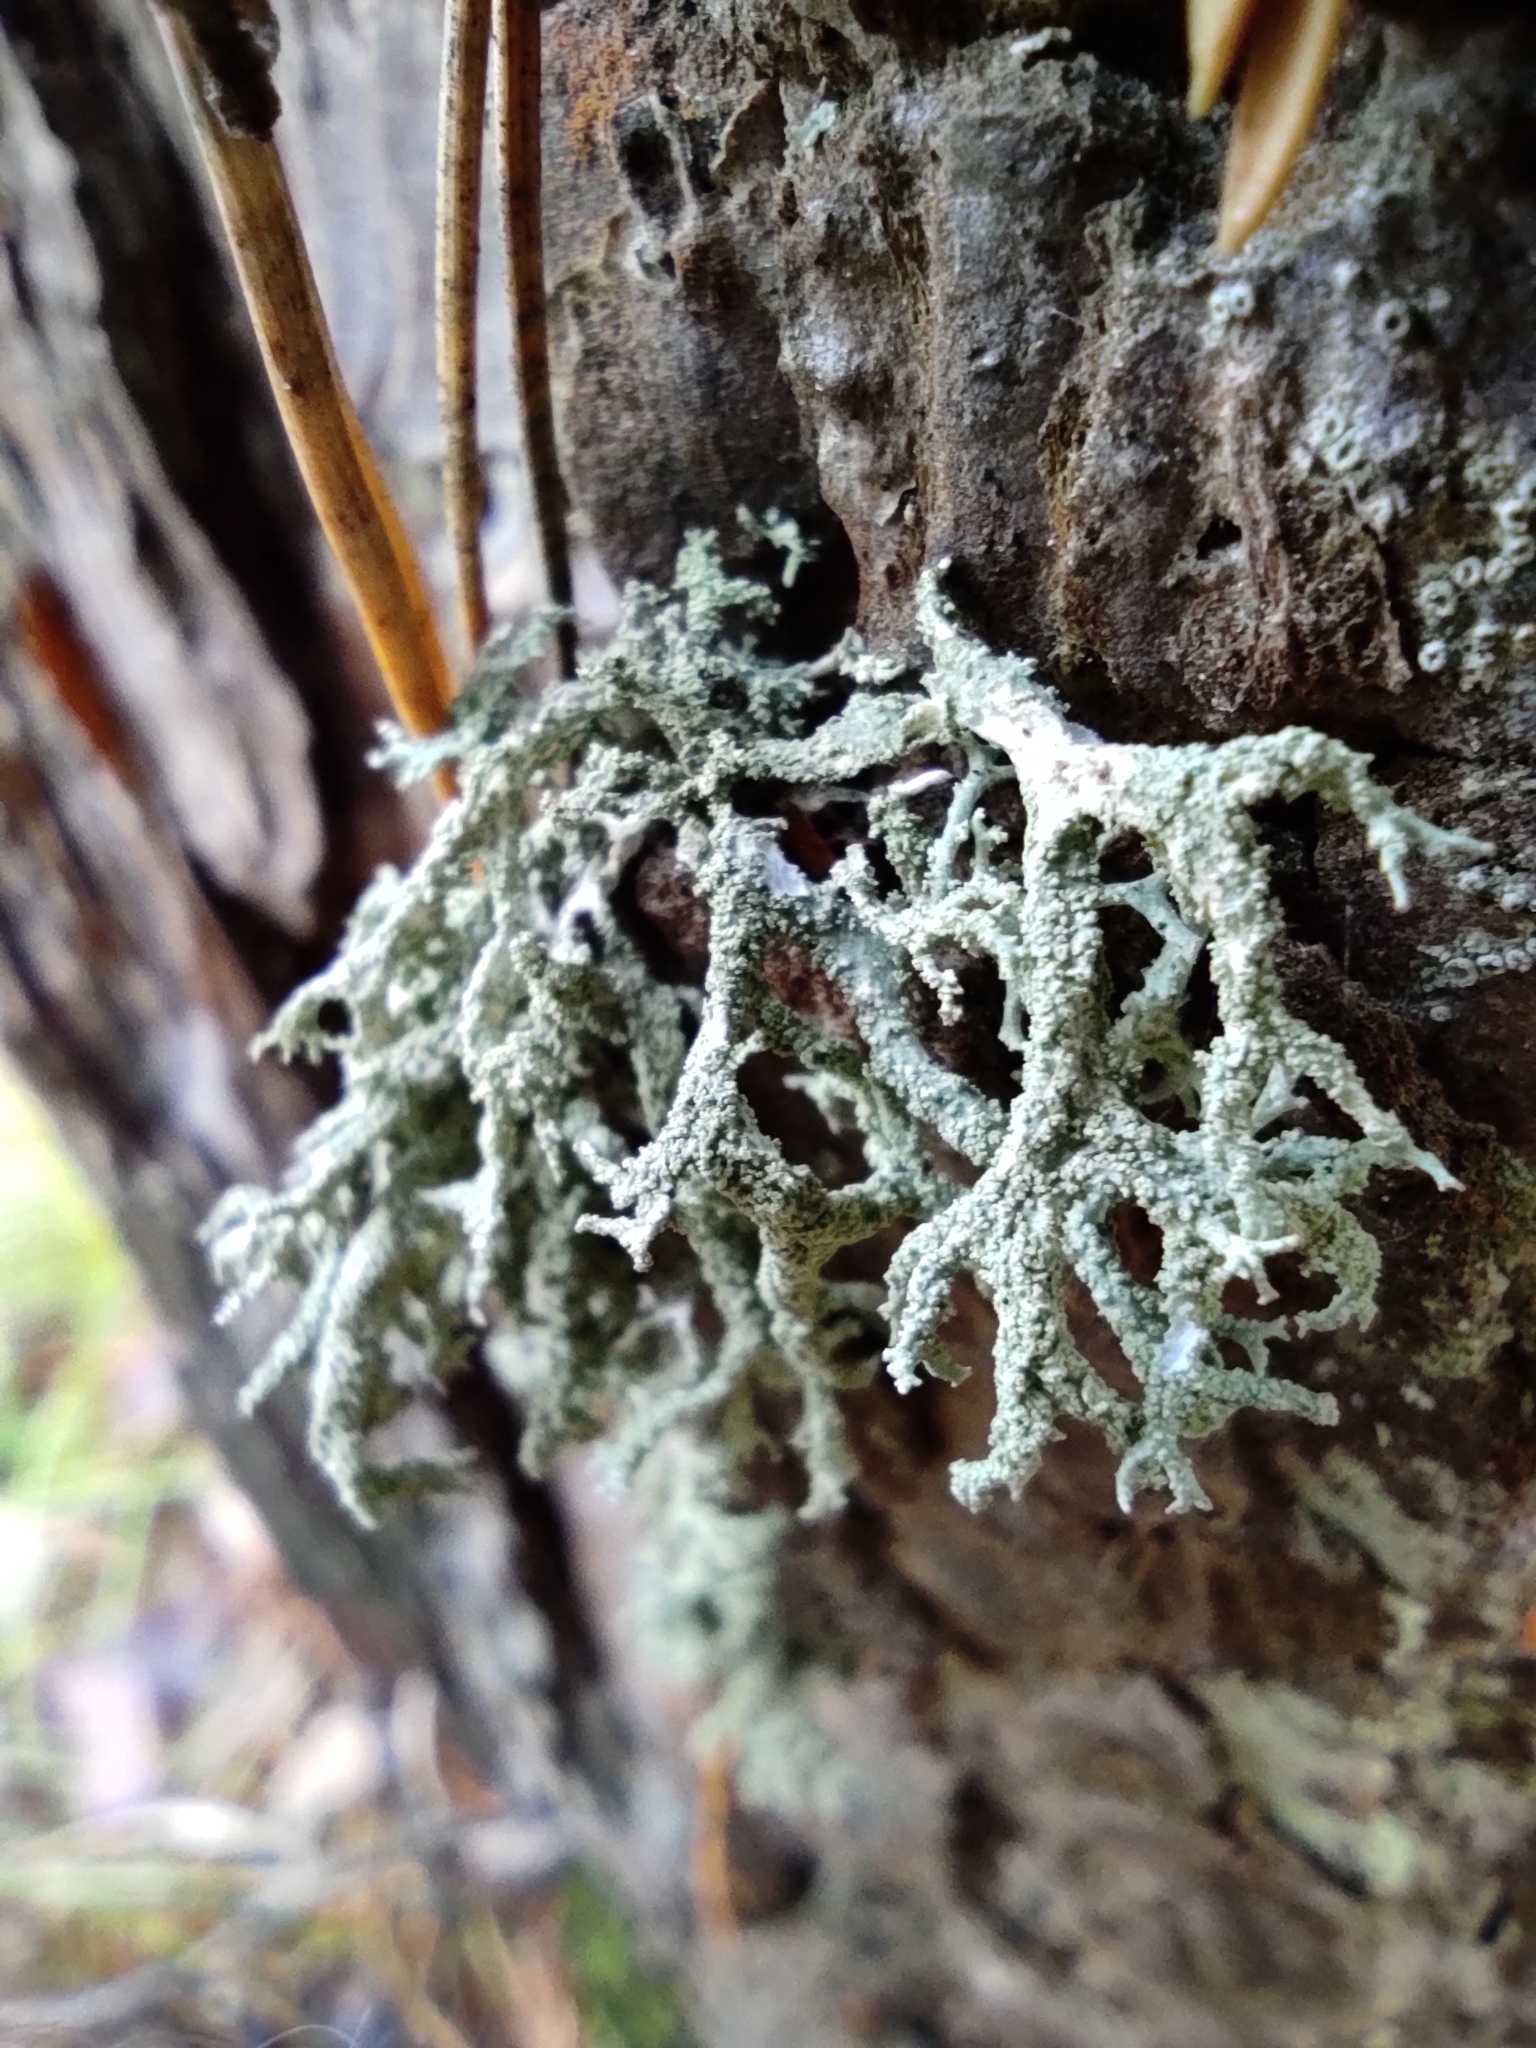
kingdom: Fungi
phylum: Ascomycota
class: Lecanoromycetes
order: Lecanorales
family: Parmeliaceae
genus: Evernia
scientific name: Evernia mesomorpha
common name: Boreal oak moss lichen
